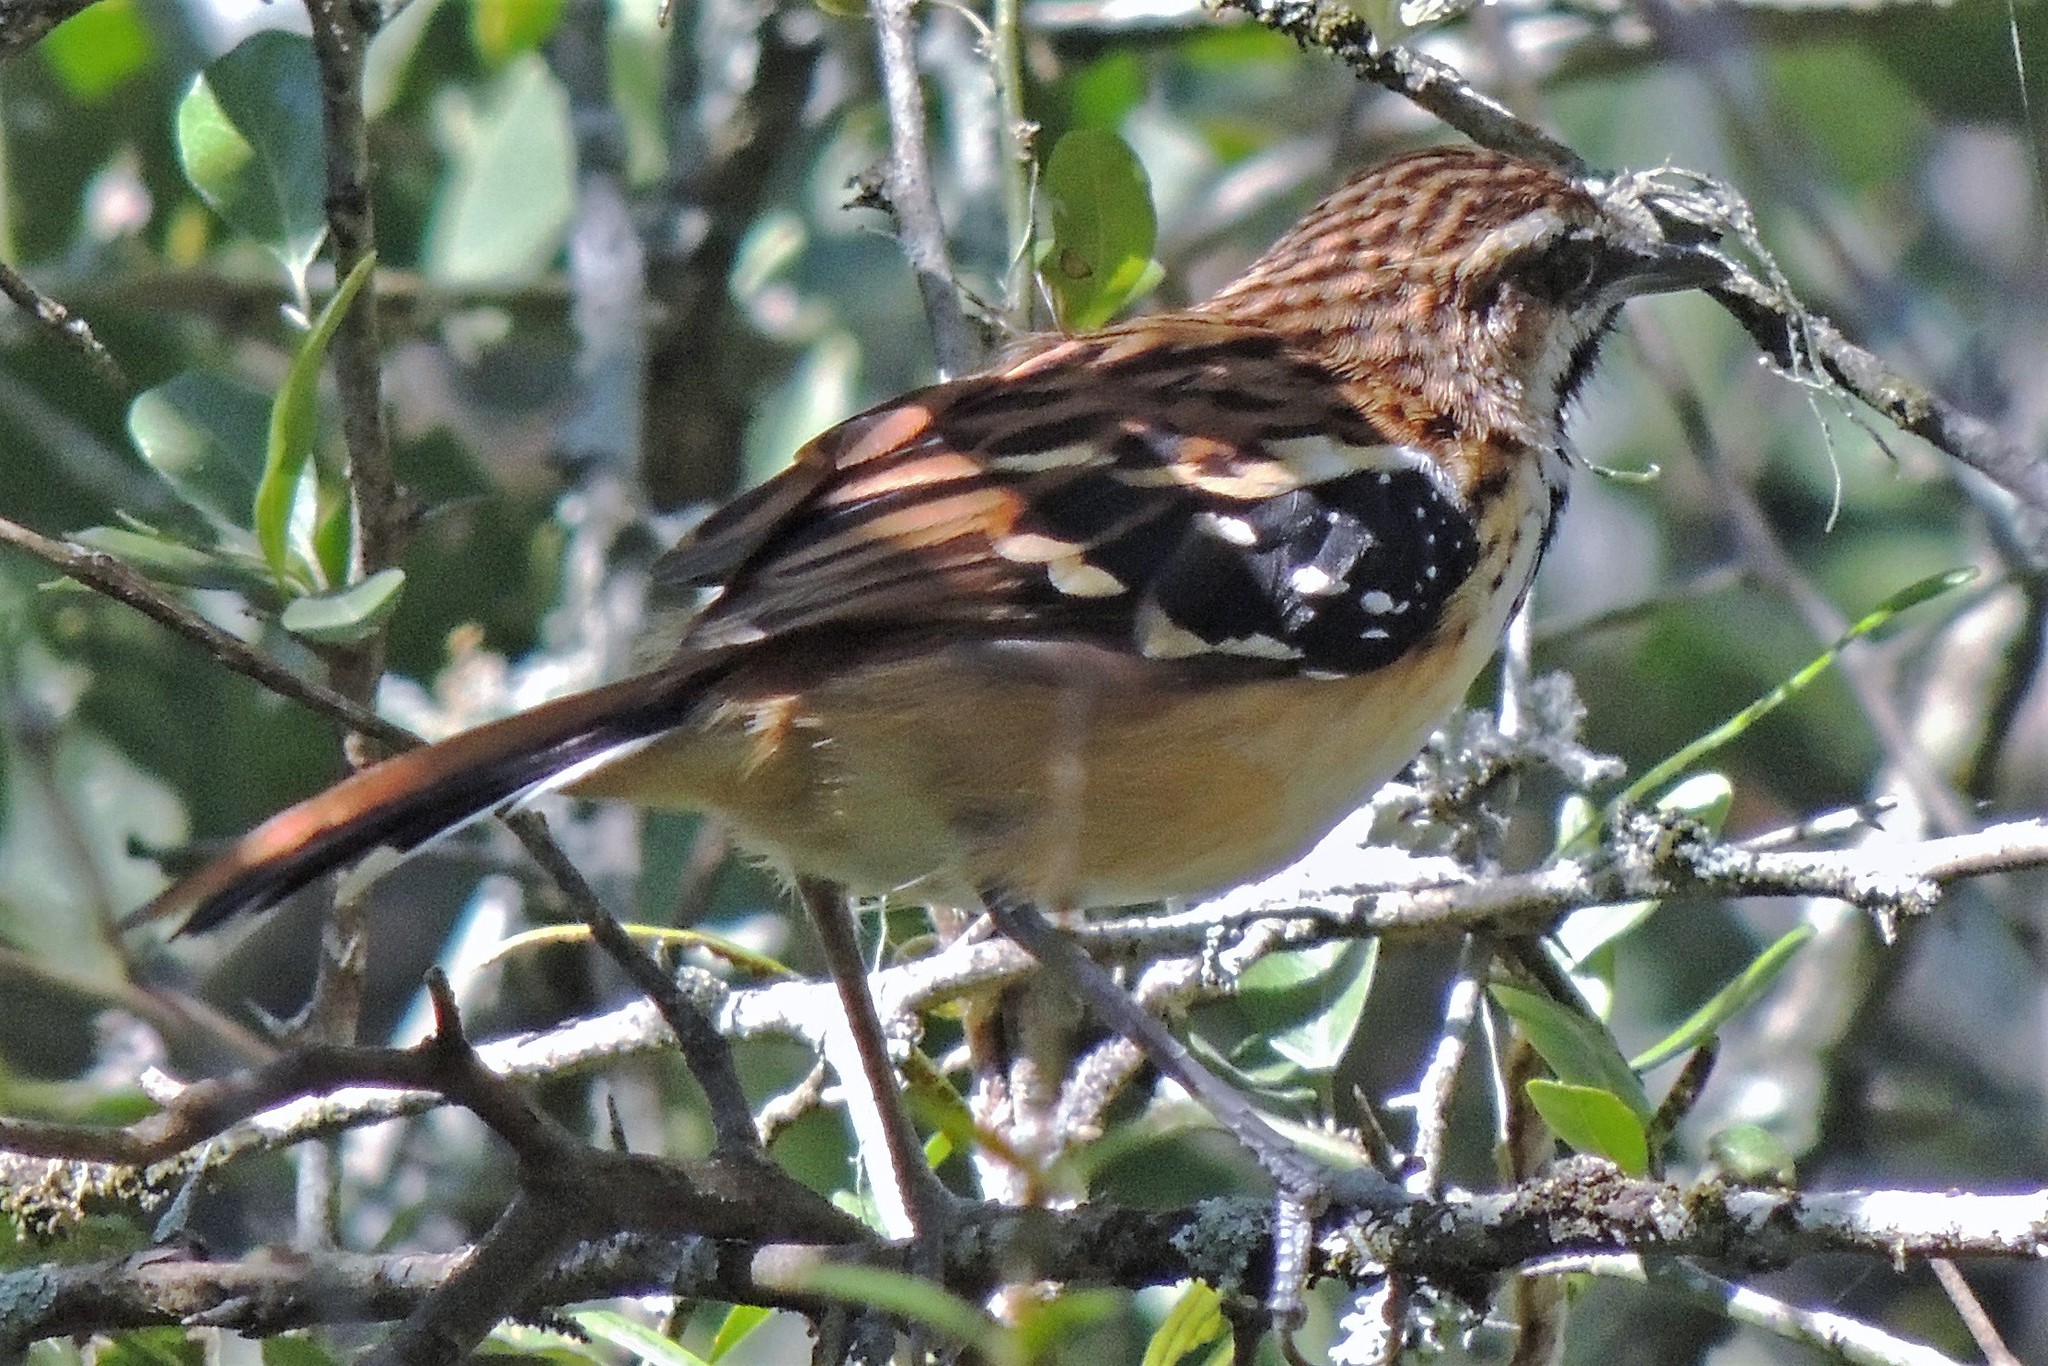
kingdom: Animalia
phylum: Chordata
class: Aves
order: Passeriformes
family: Thamnophilidae
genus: Myrmorchilus
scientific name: Myrmorchilus strigilatus
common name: Stripe-backed antbird
